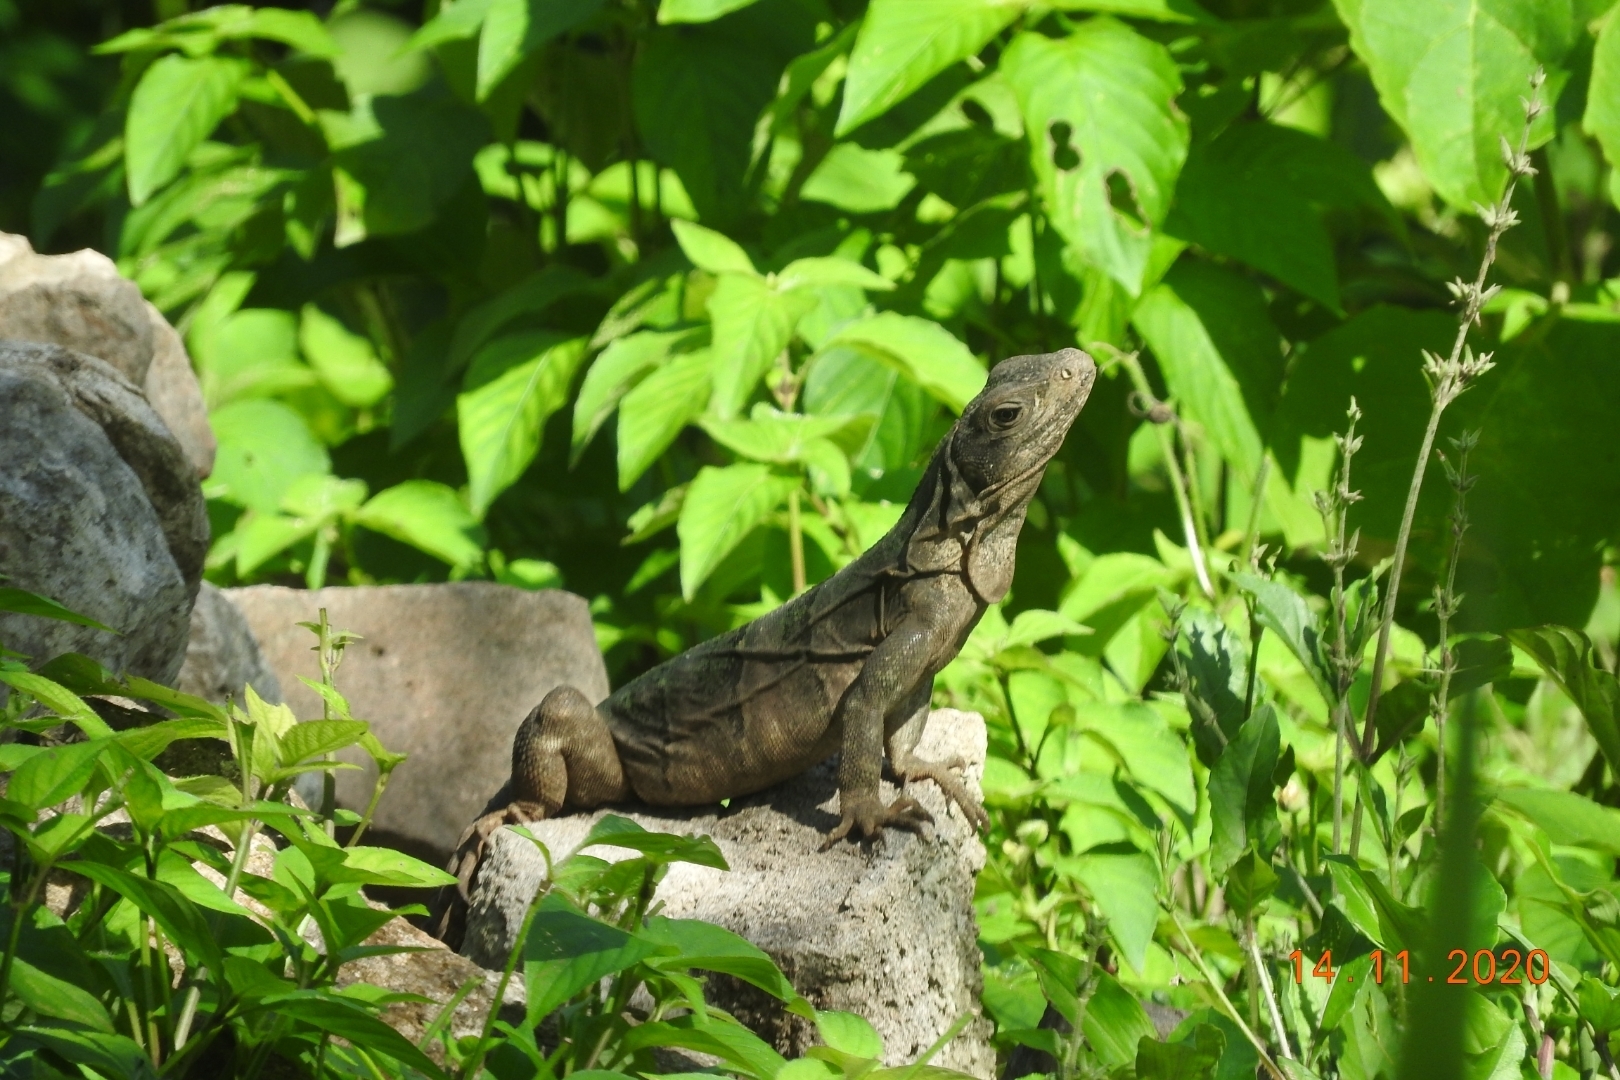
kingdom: Animalia
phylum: Chordata
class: Squamata
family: Iguanidae
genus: Ctenosaura
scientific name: Ctenosaura similis
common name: Black spiny-tailed iguana
